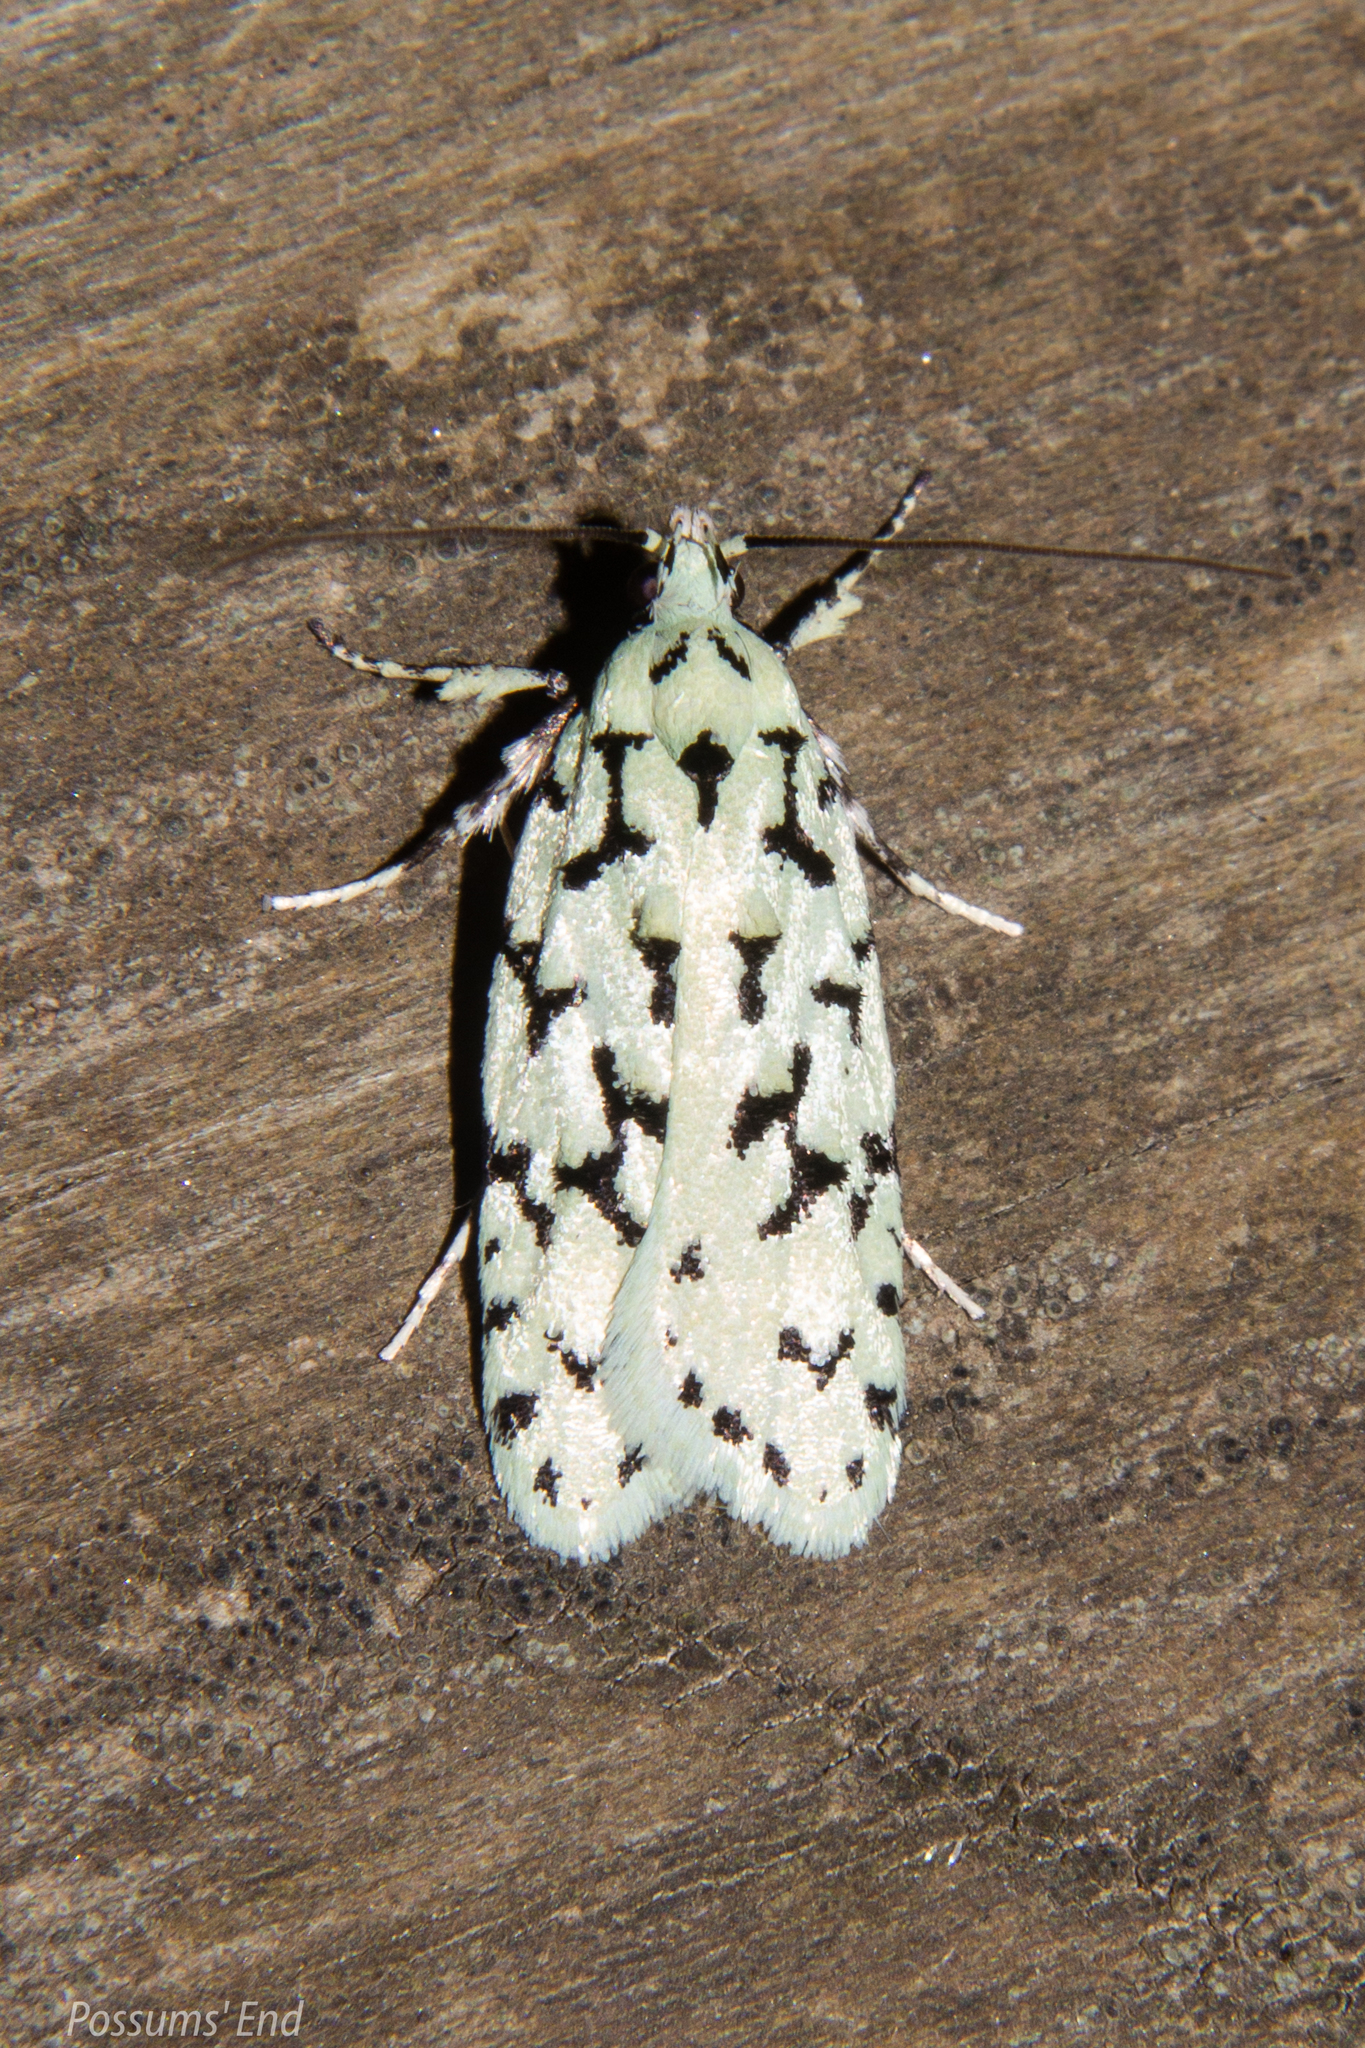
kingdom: Animalia
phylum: Arthropoda
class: Insecta
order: Lepidoptera
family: Oecophoridae
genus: Izatha
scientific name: Izatha huttoni
